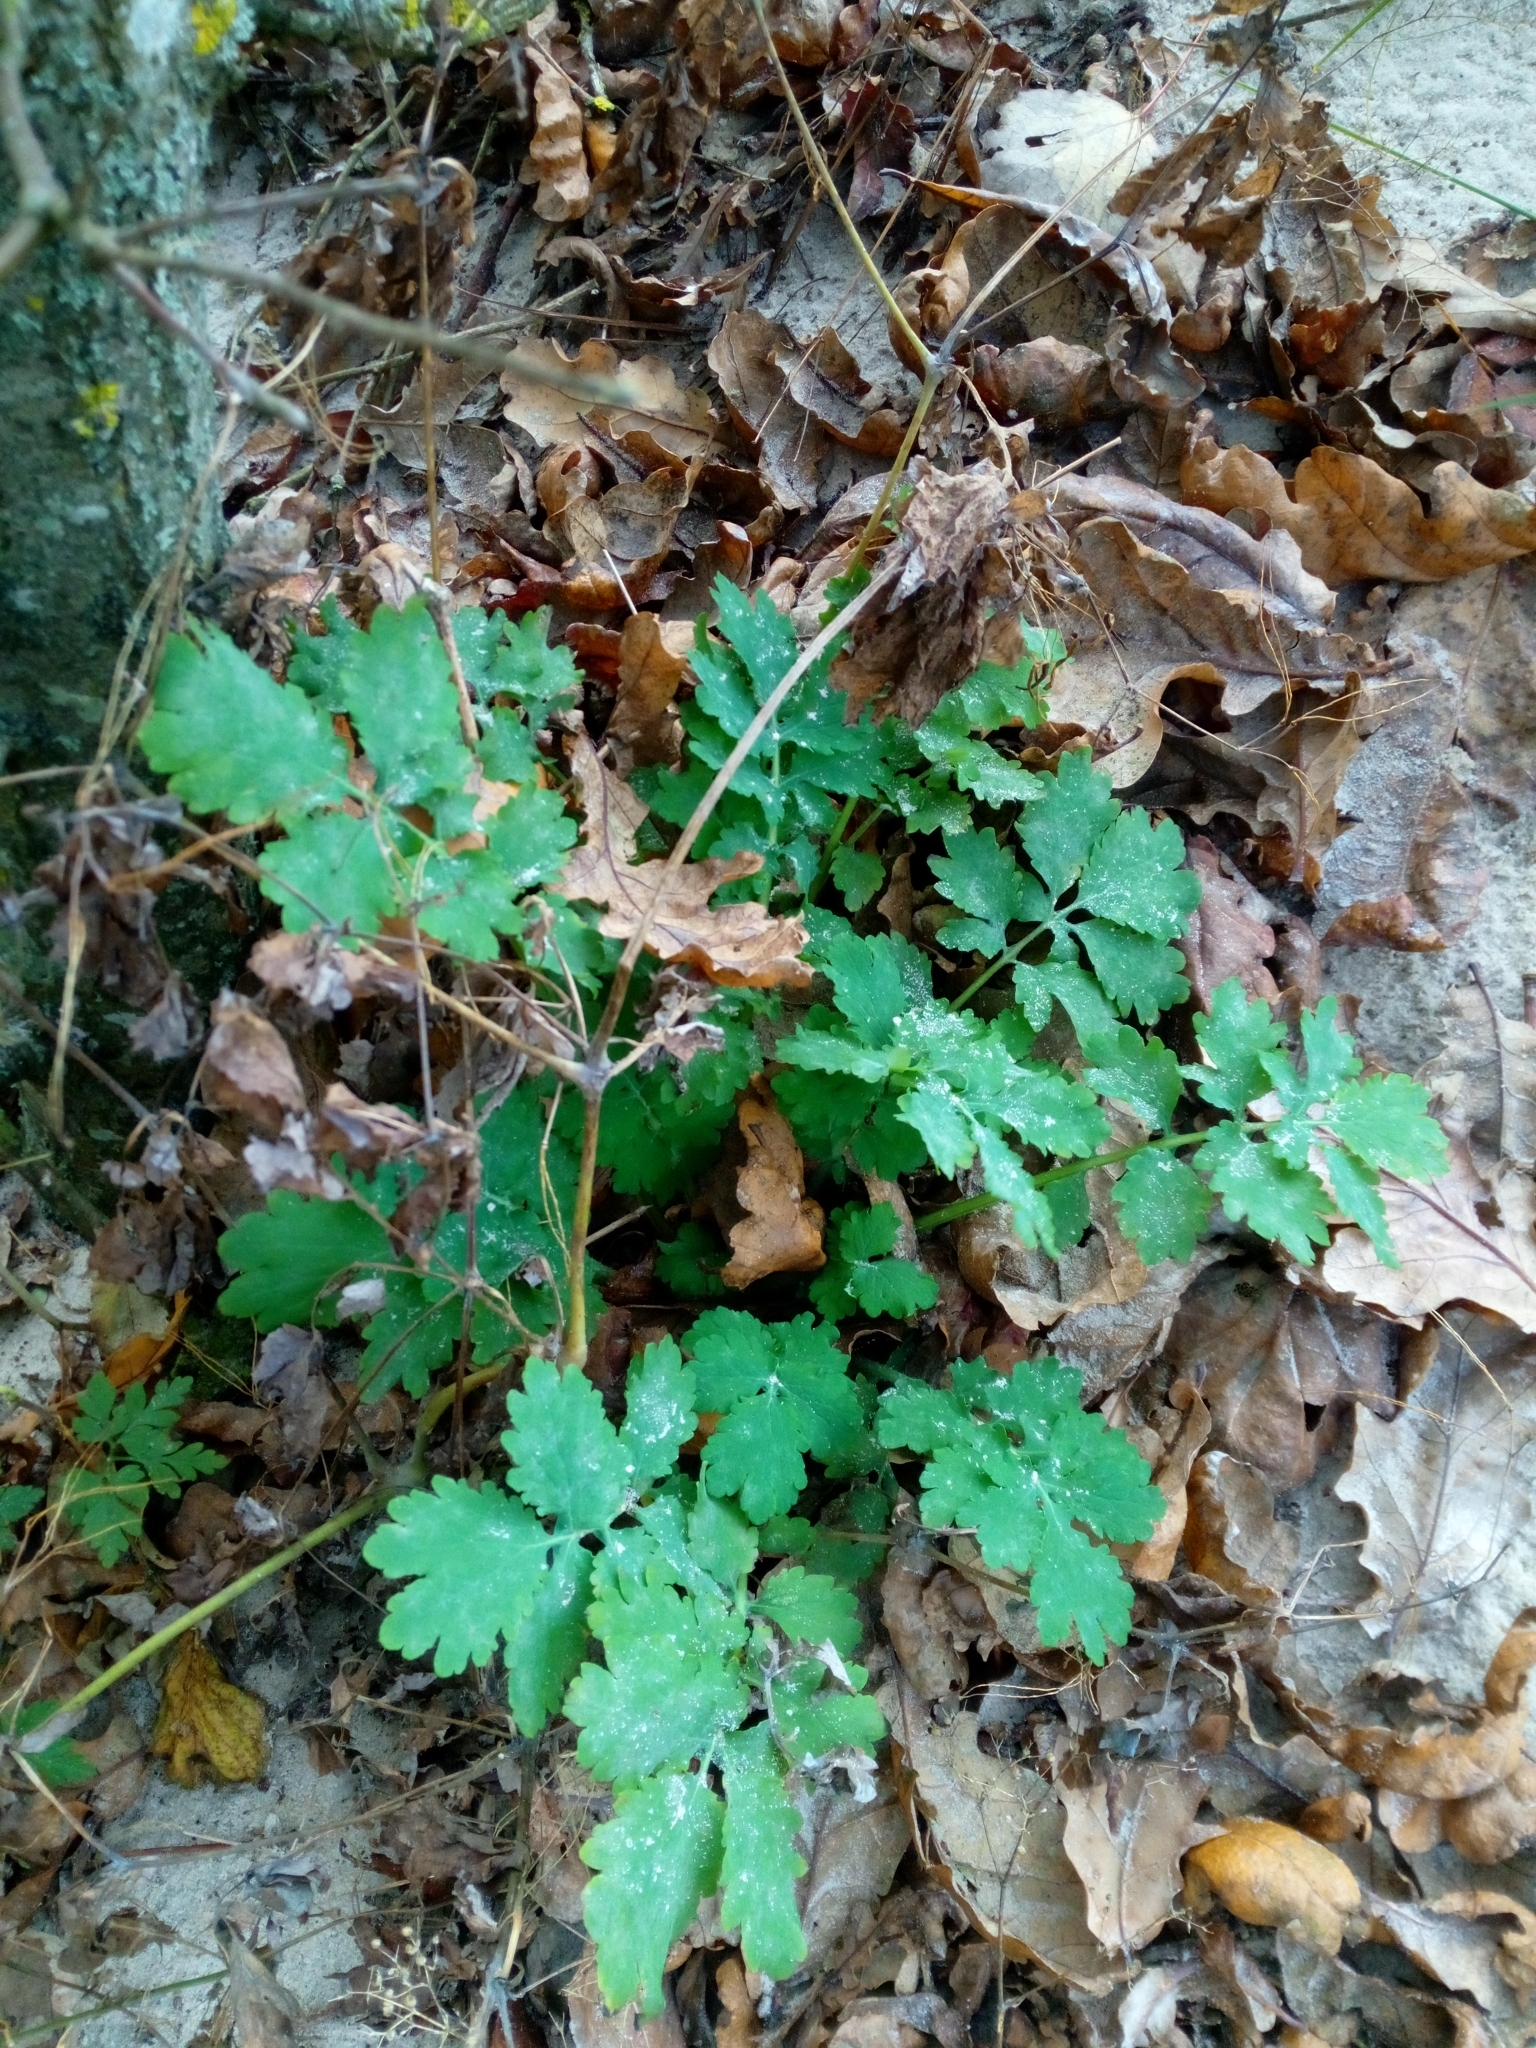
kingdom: Plantae
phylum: Tracheophyta
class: Magnoliopsida
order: Ranunculales
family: Papaveraceae
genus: Chelidonium
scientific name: Chelidonium majus
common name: Greater celandine
